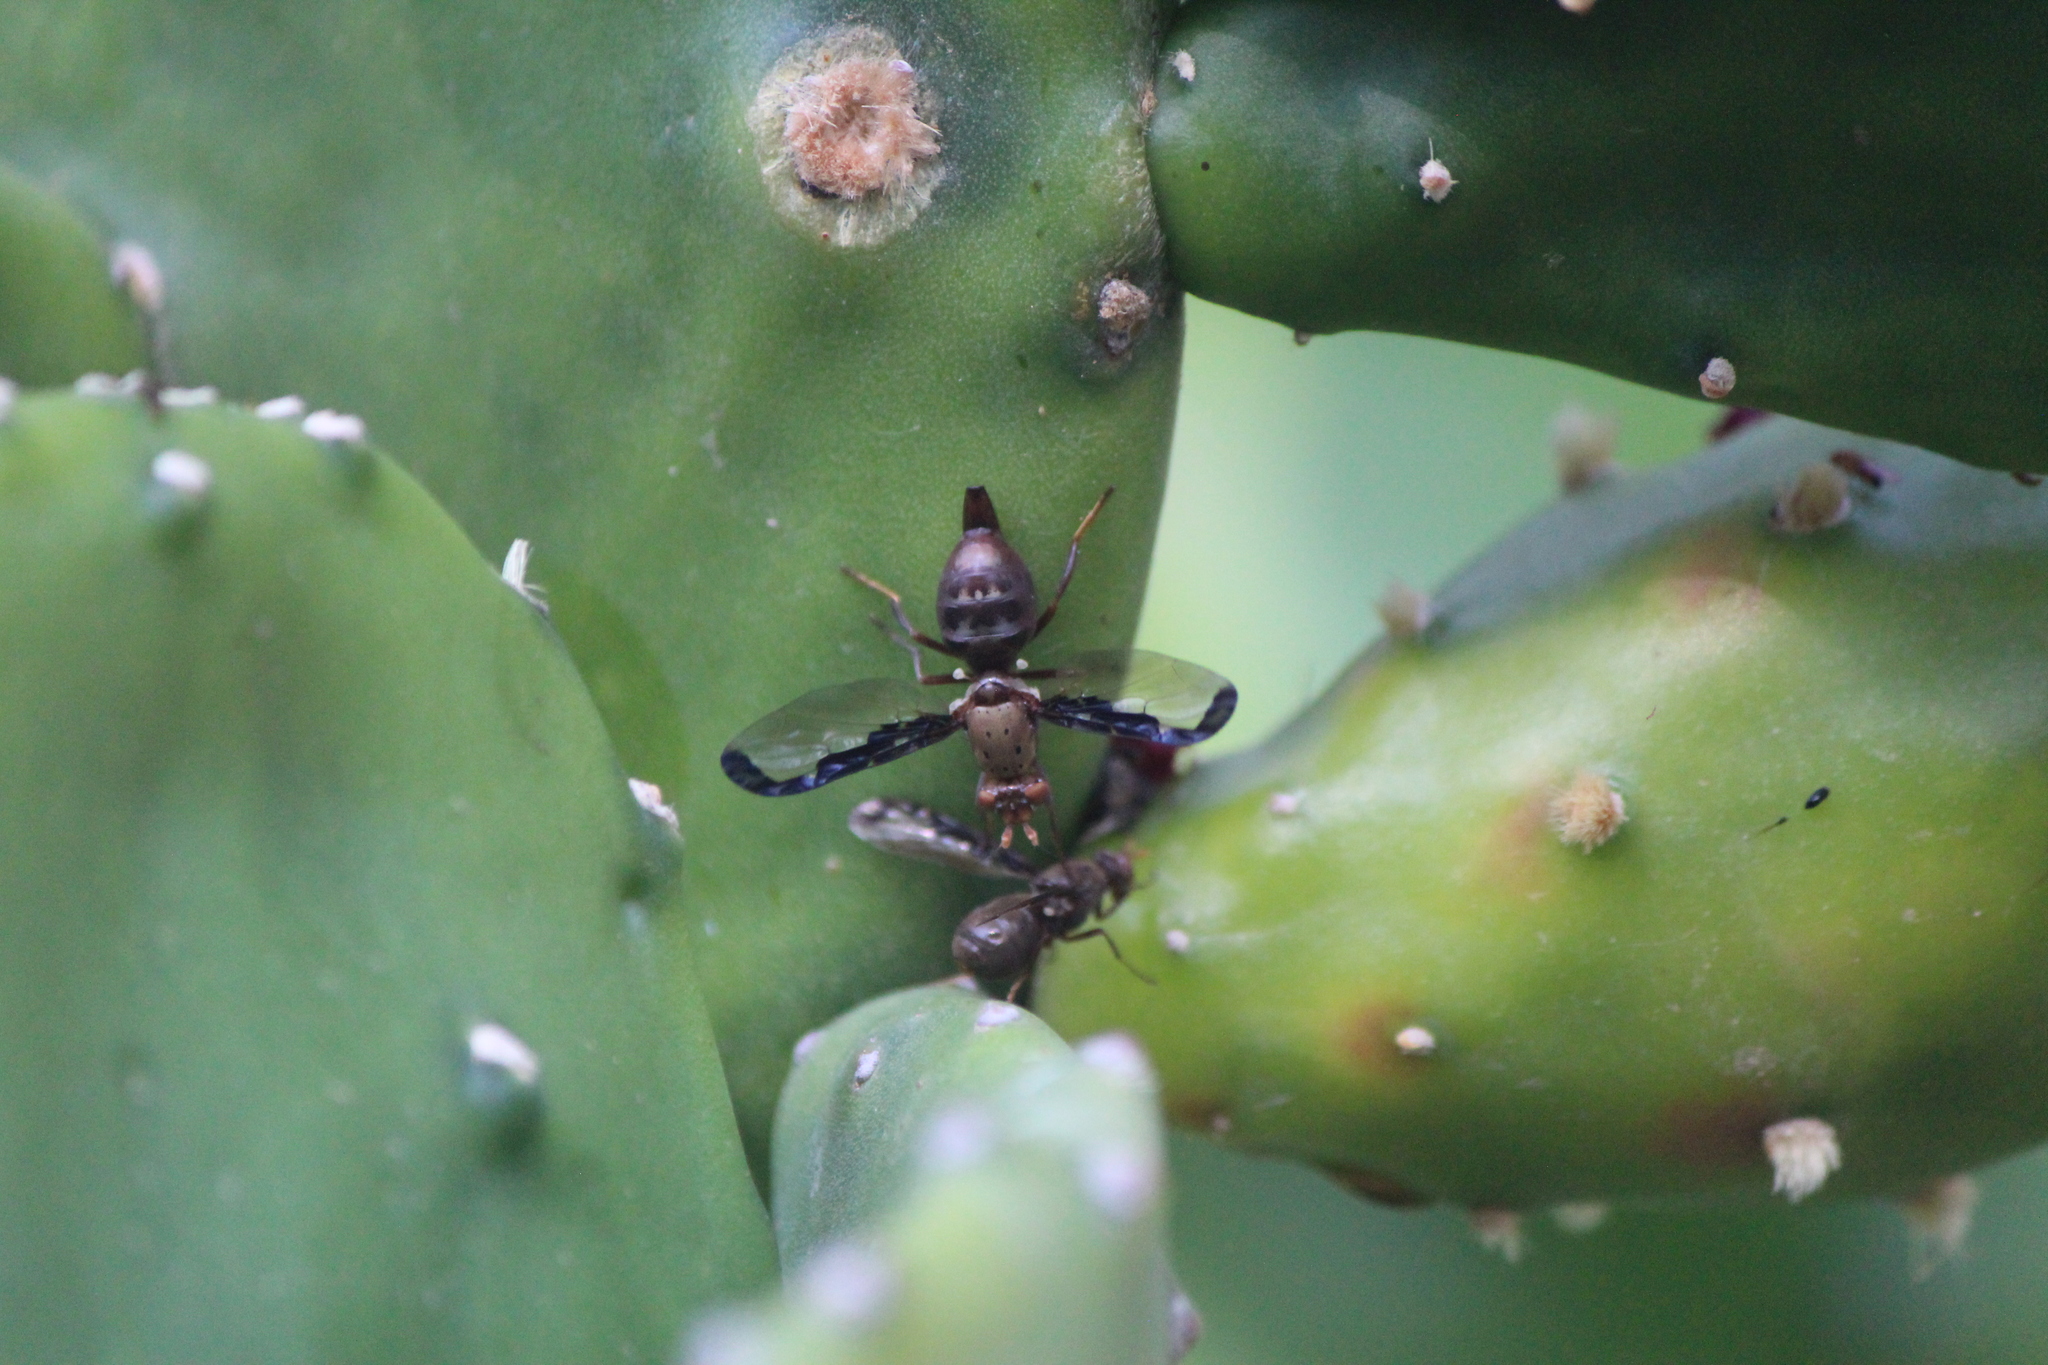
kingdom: Animalia
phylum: Arthropoda
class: Insecta
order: Diptera
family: Ulidiidae
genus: Diacrita
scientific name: Diacrita costalis
